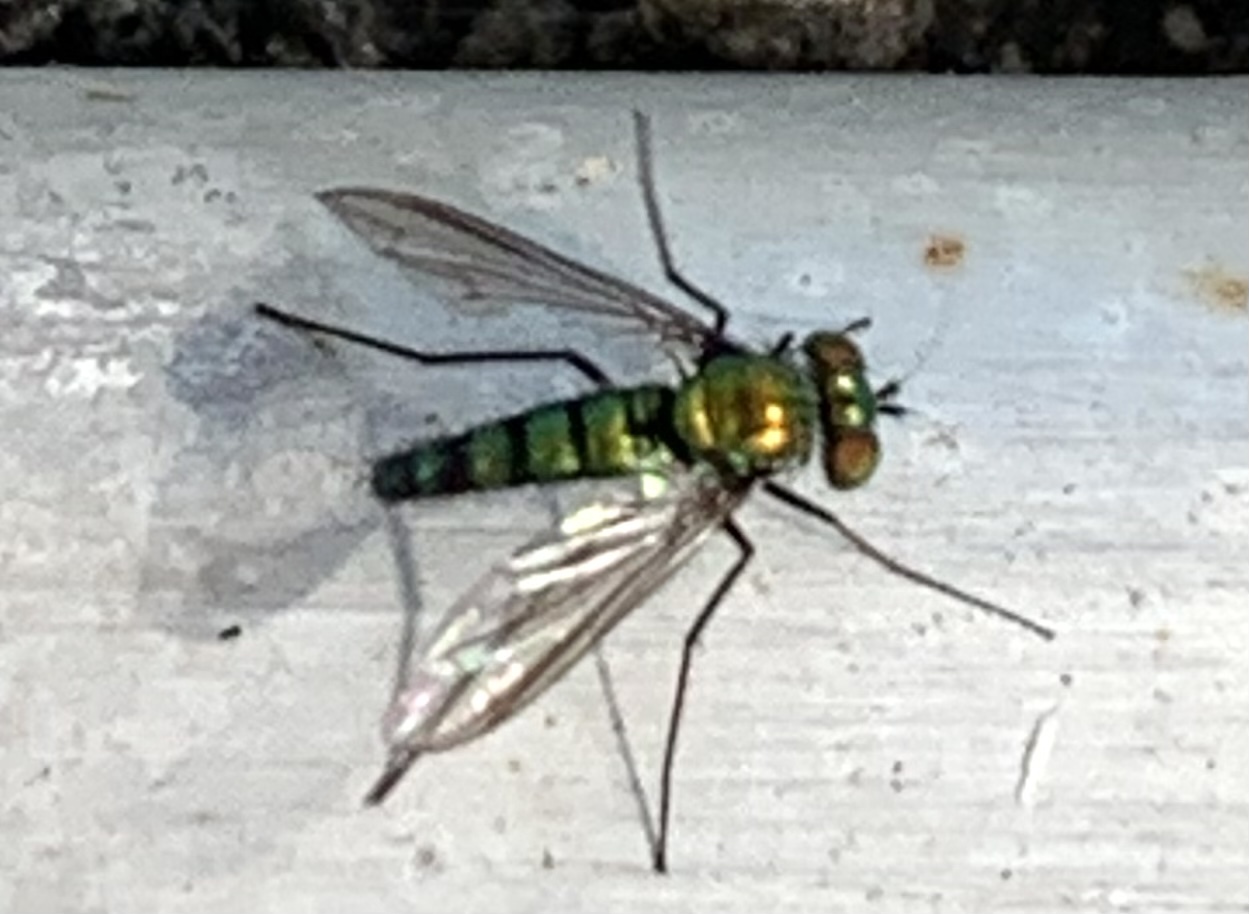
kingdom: Animalia
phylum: Arthropoda
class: Insecta
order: Diptera
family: Dolichopodidae
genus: Condylostylus
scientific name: Condylostylus longicornis
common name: Long-legged fly
